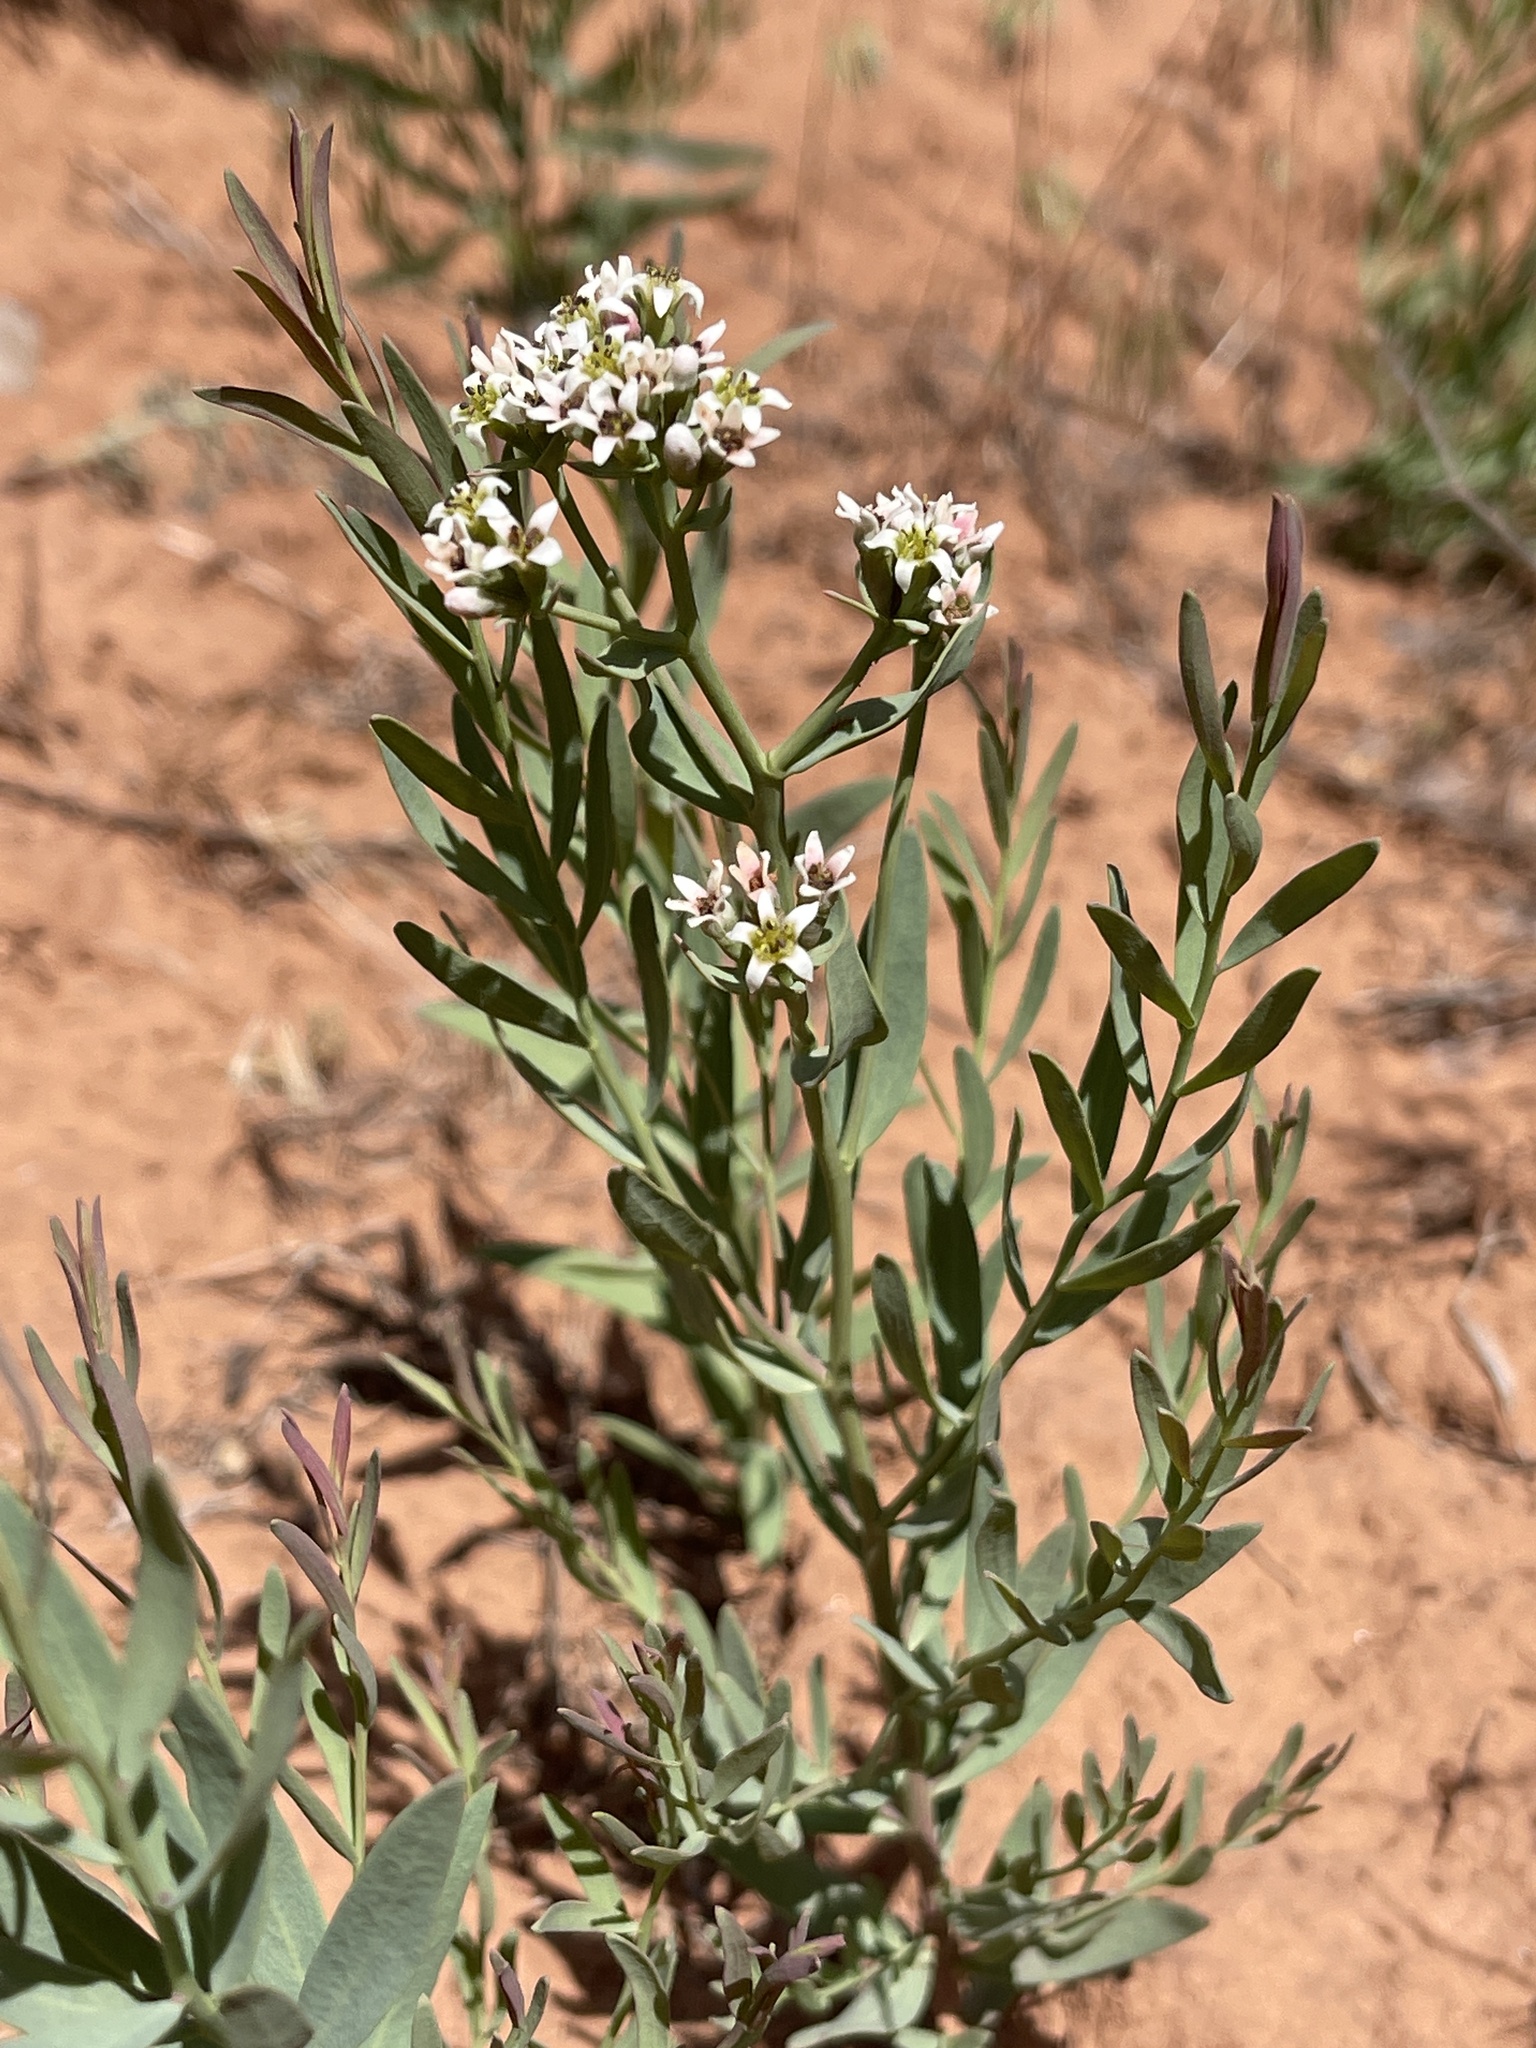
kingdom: Plantae
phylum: Tracheophyta
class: Magnoliopsida
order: Santalales
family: Comandraceae
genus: Comandra
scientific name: Comandra umbellata
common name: Bastard toadflax
